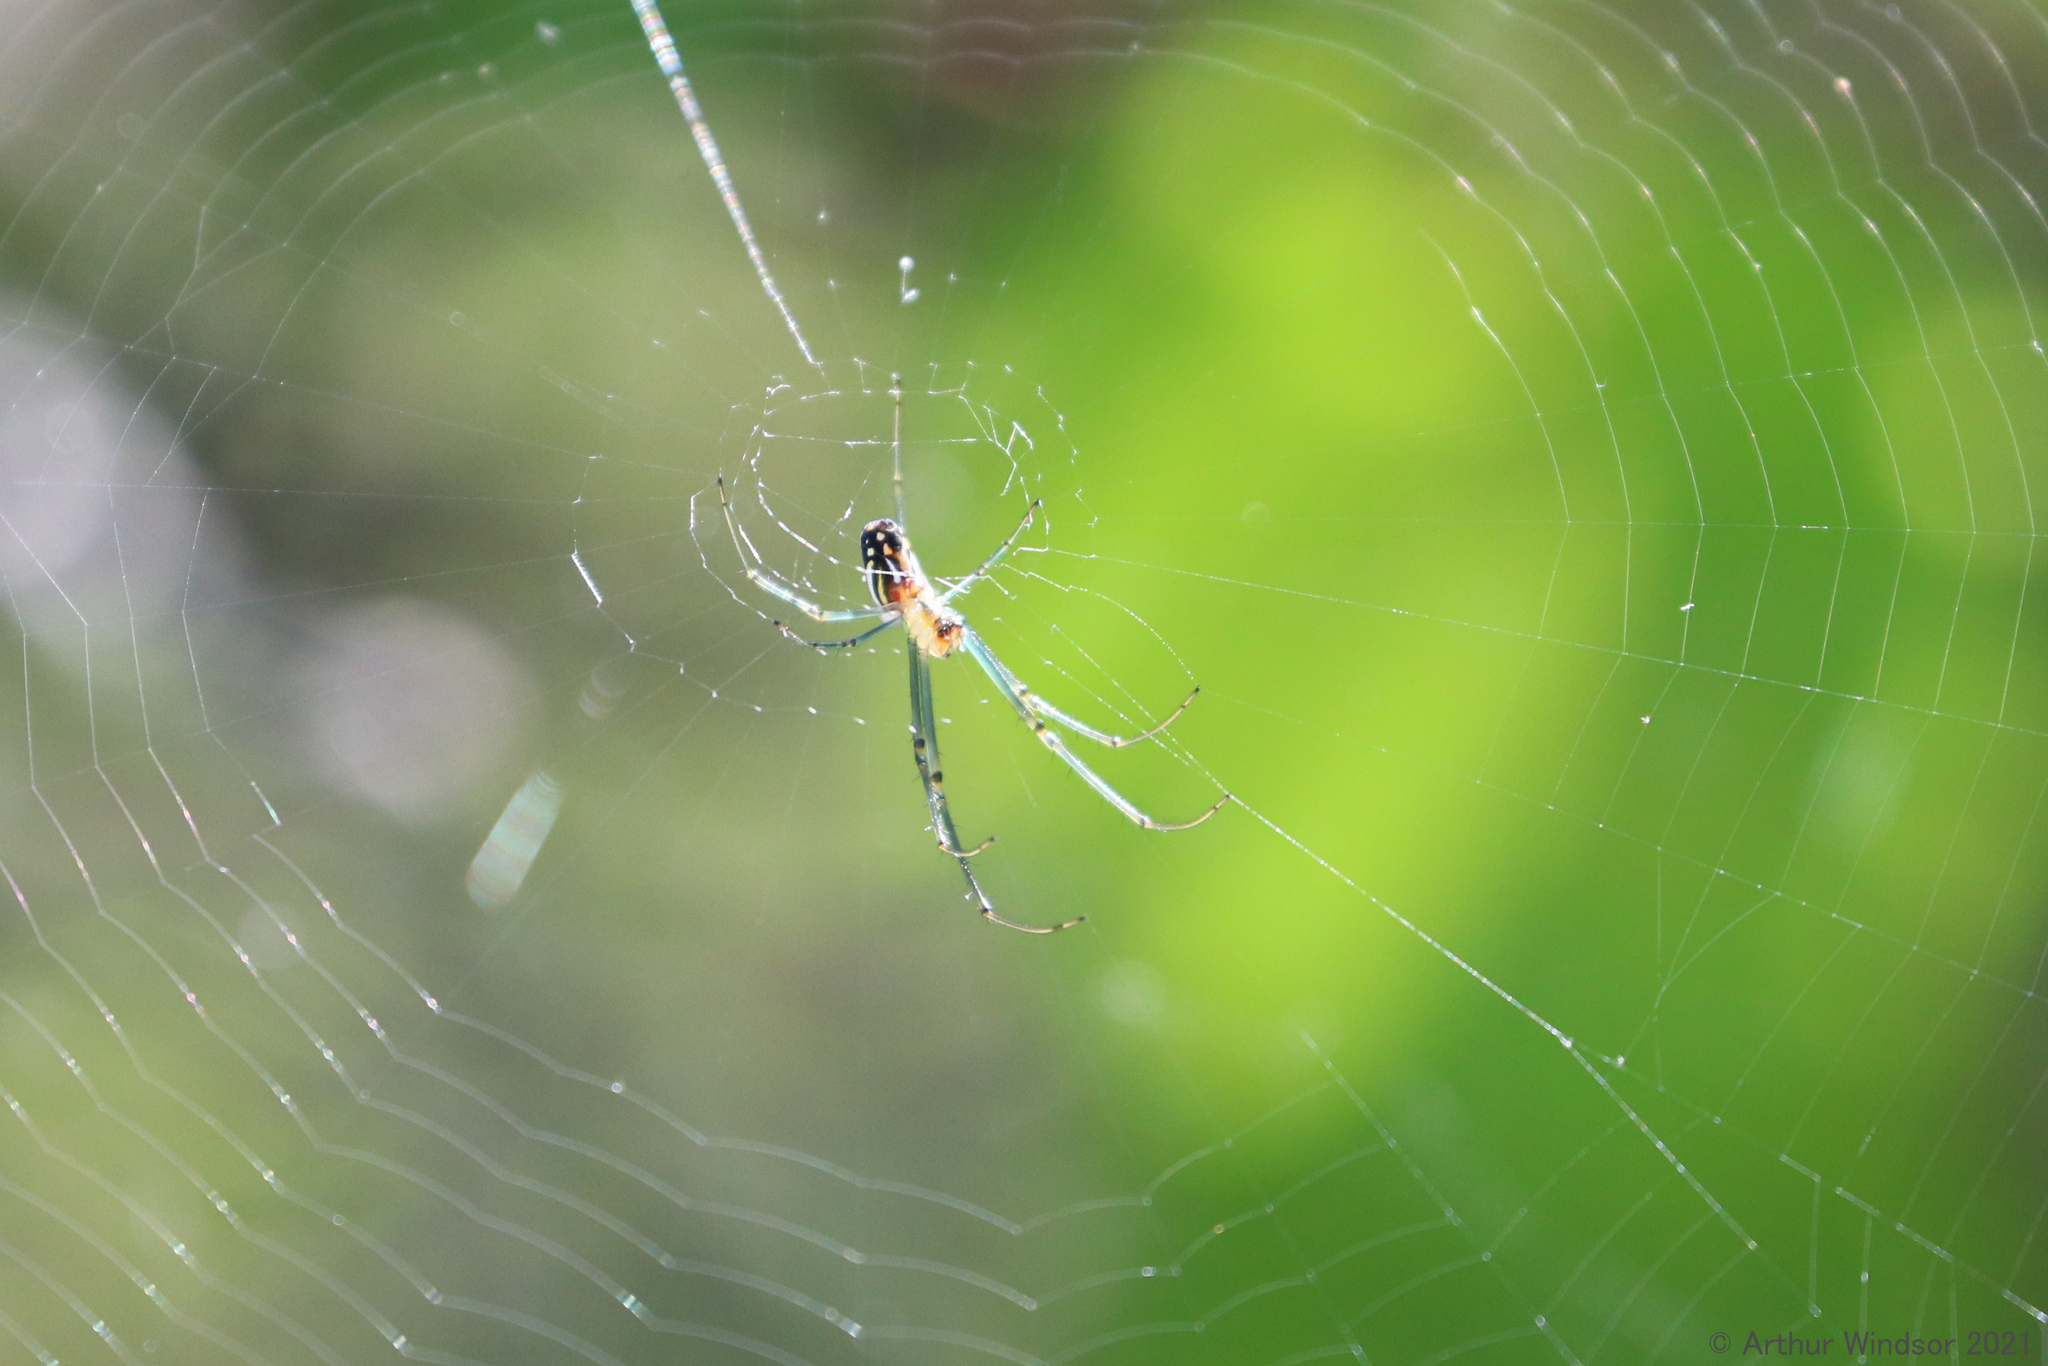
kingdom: Animalia
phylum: Arthropoda
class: Arachnida
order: Araneae
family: Tetragnathidae
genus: Leucauge
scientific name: Leucauge argyra
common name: Longjawed orb weavers
